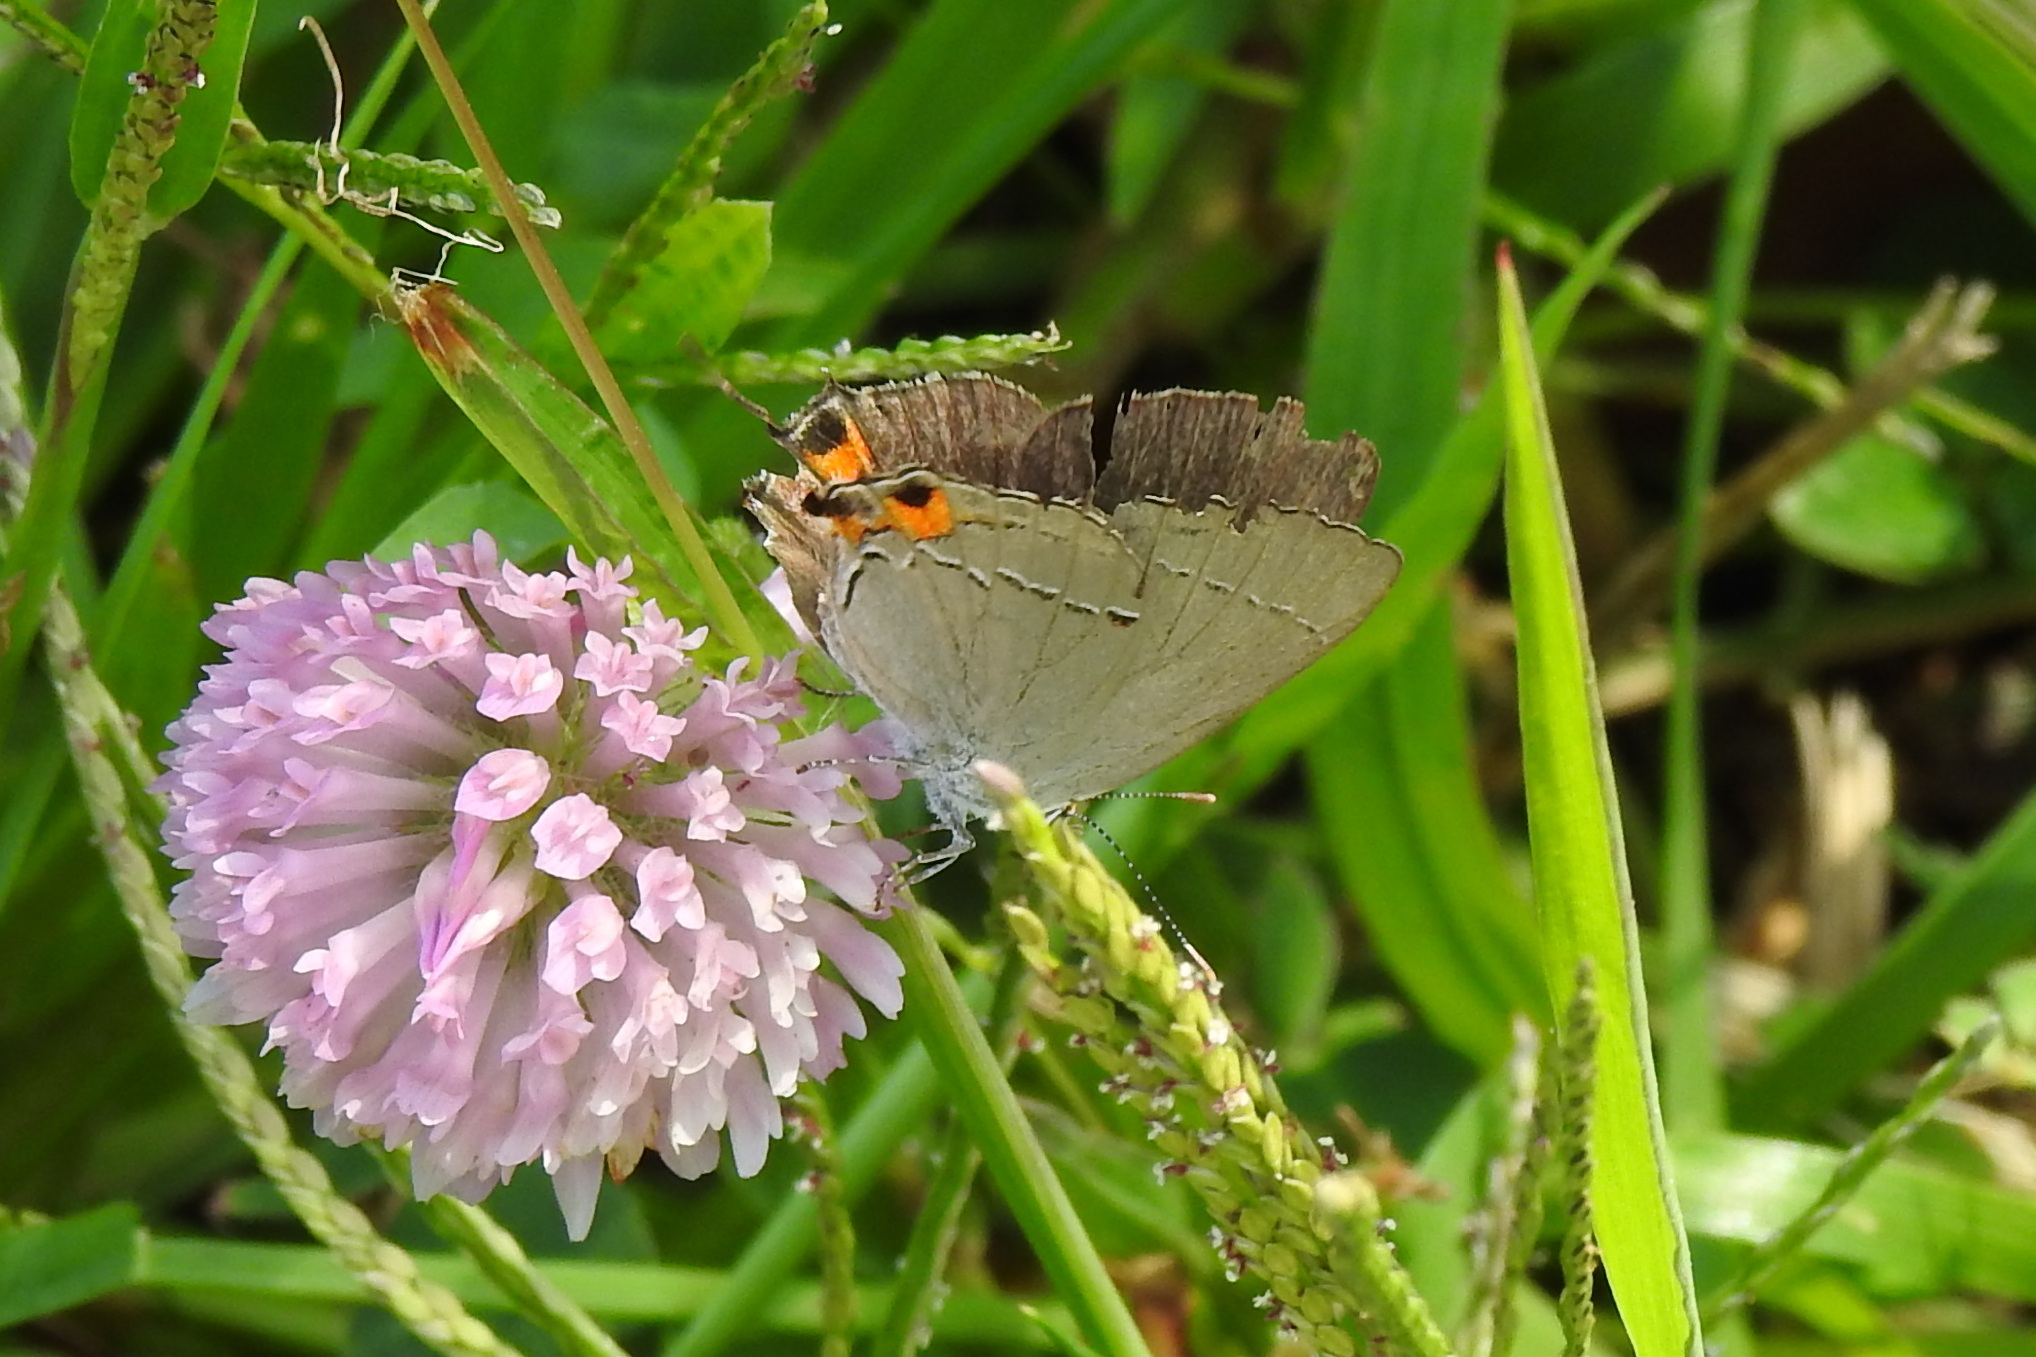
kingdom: Animalia
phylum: Arthropoda
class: Insecta
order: Lepidoptera
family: Lycaenidae
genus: Strymon
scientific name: Strymon melinus
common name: Gray hairstreak
